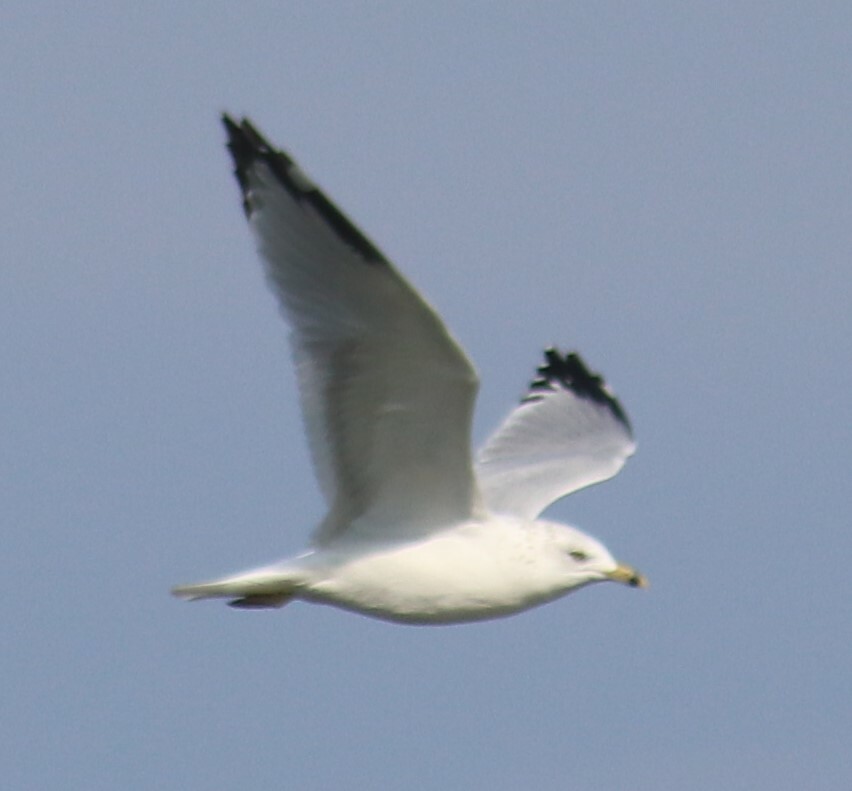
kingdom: Animalia
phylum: Chordata
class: Aves
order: Charadriiformes
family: Laridae
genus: Larus
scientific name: Larus delawarensis
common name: Ring-billed gull
